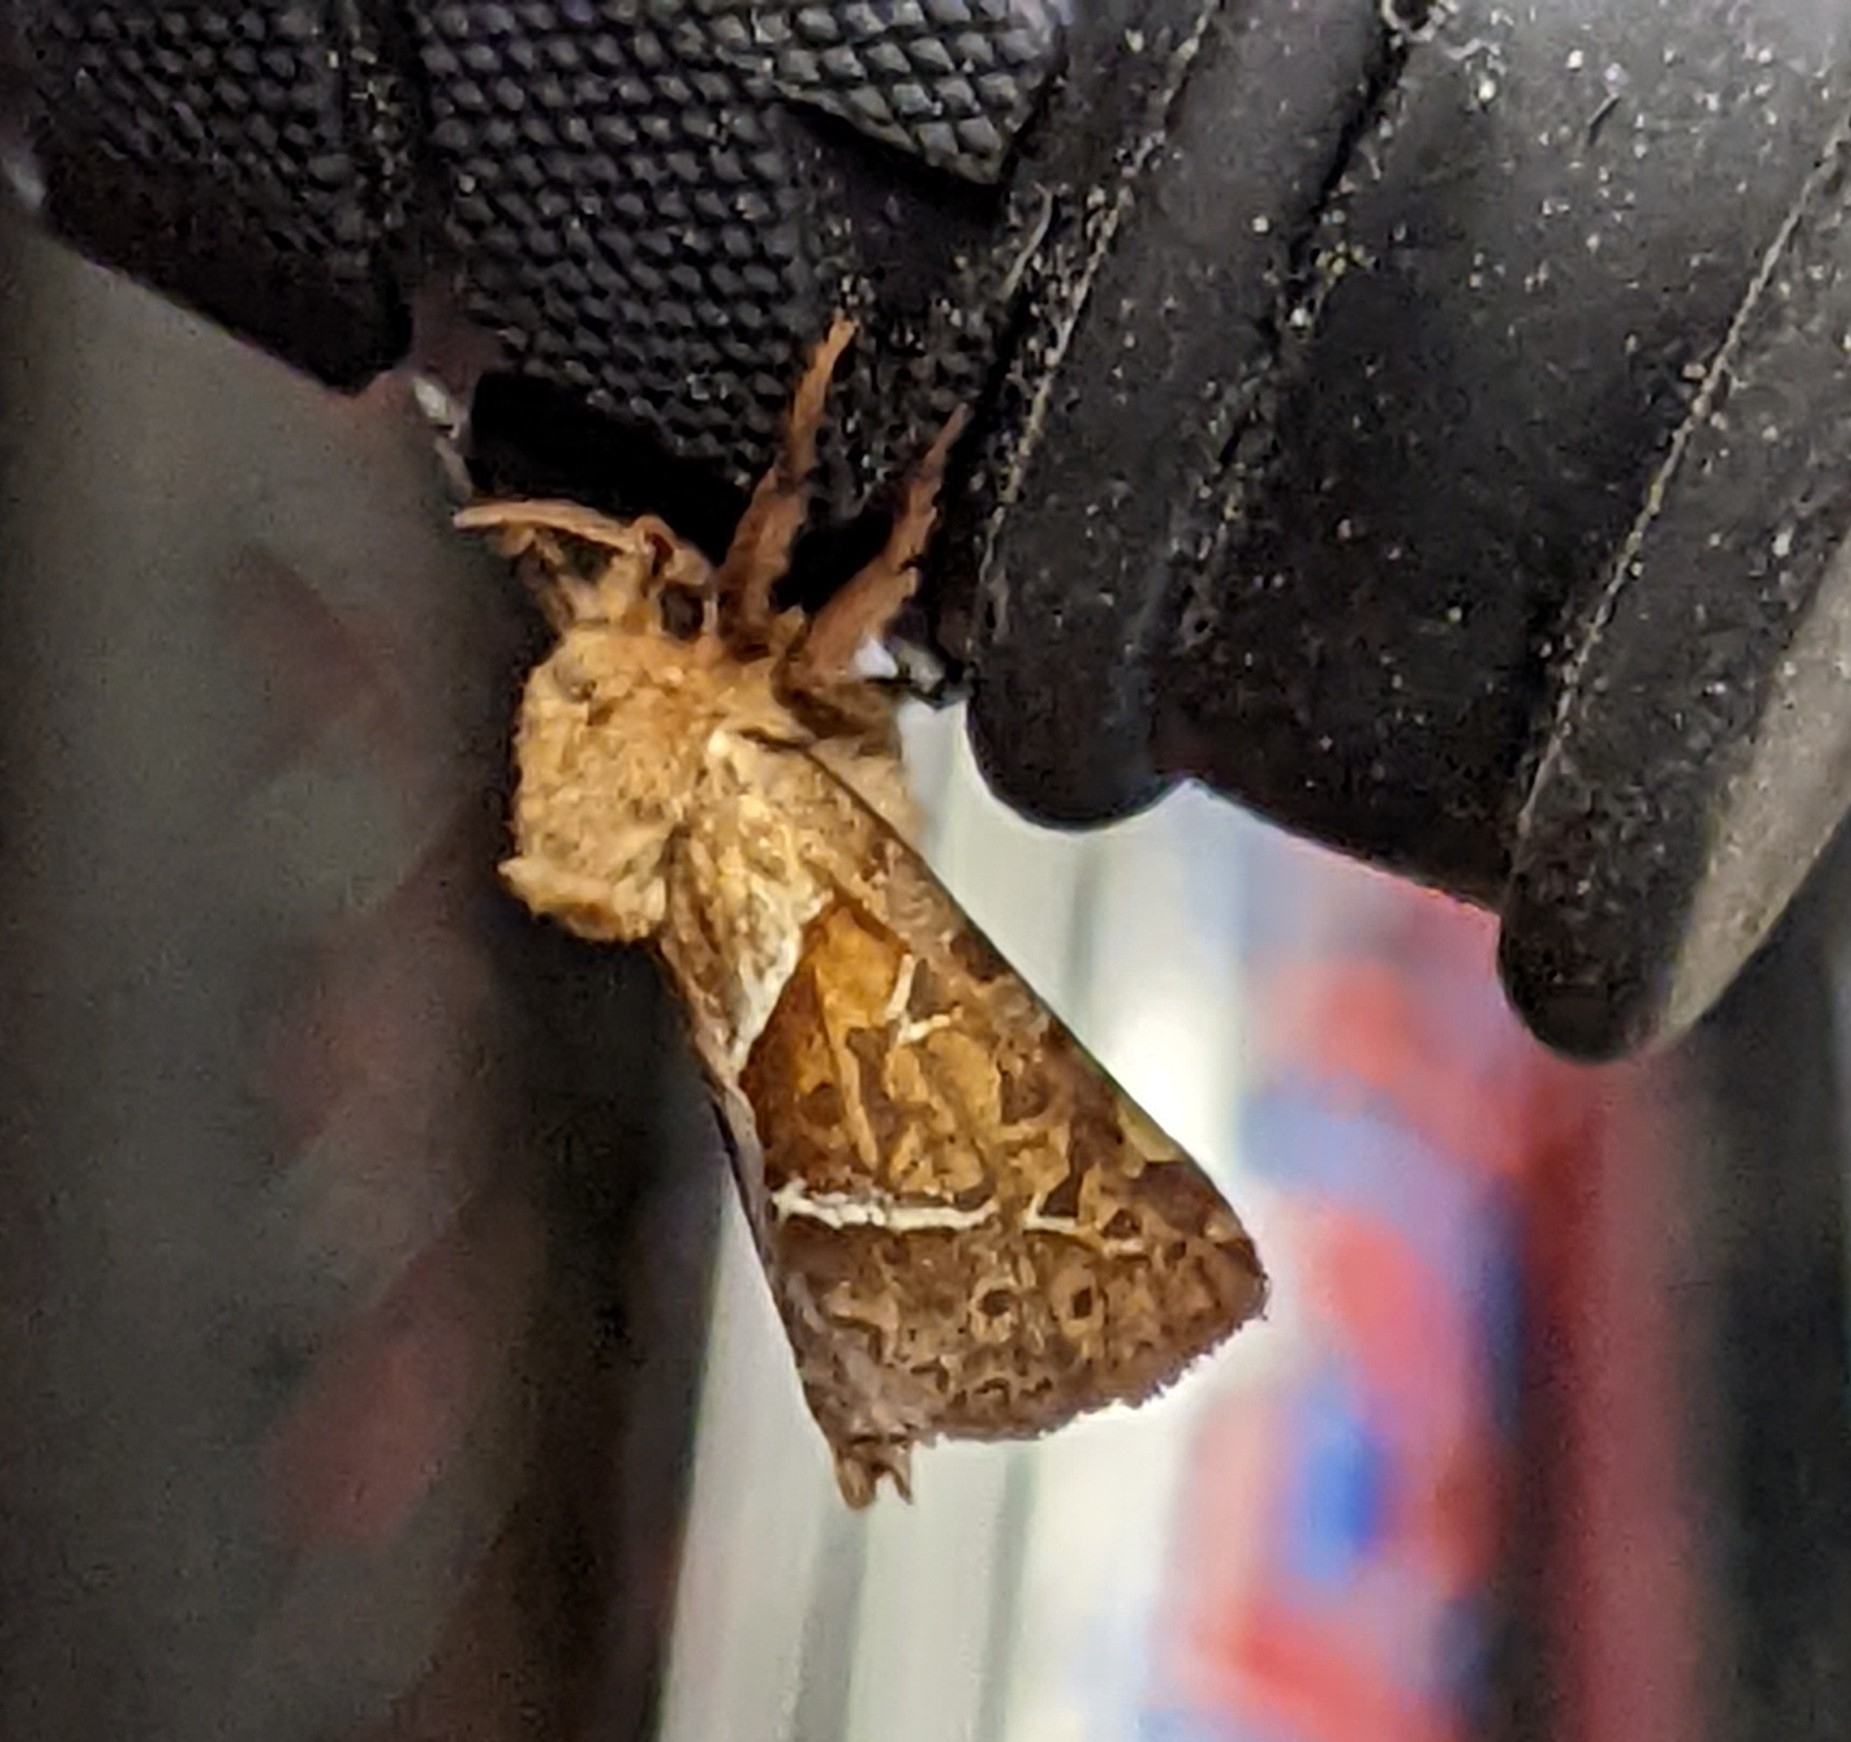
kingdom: Animalia
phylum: Arthropoda
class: Insecta
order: Lepidoptera
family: Hepialidae
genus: Triodia
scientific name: Triodia sylvina
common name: Orange swift
